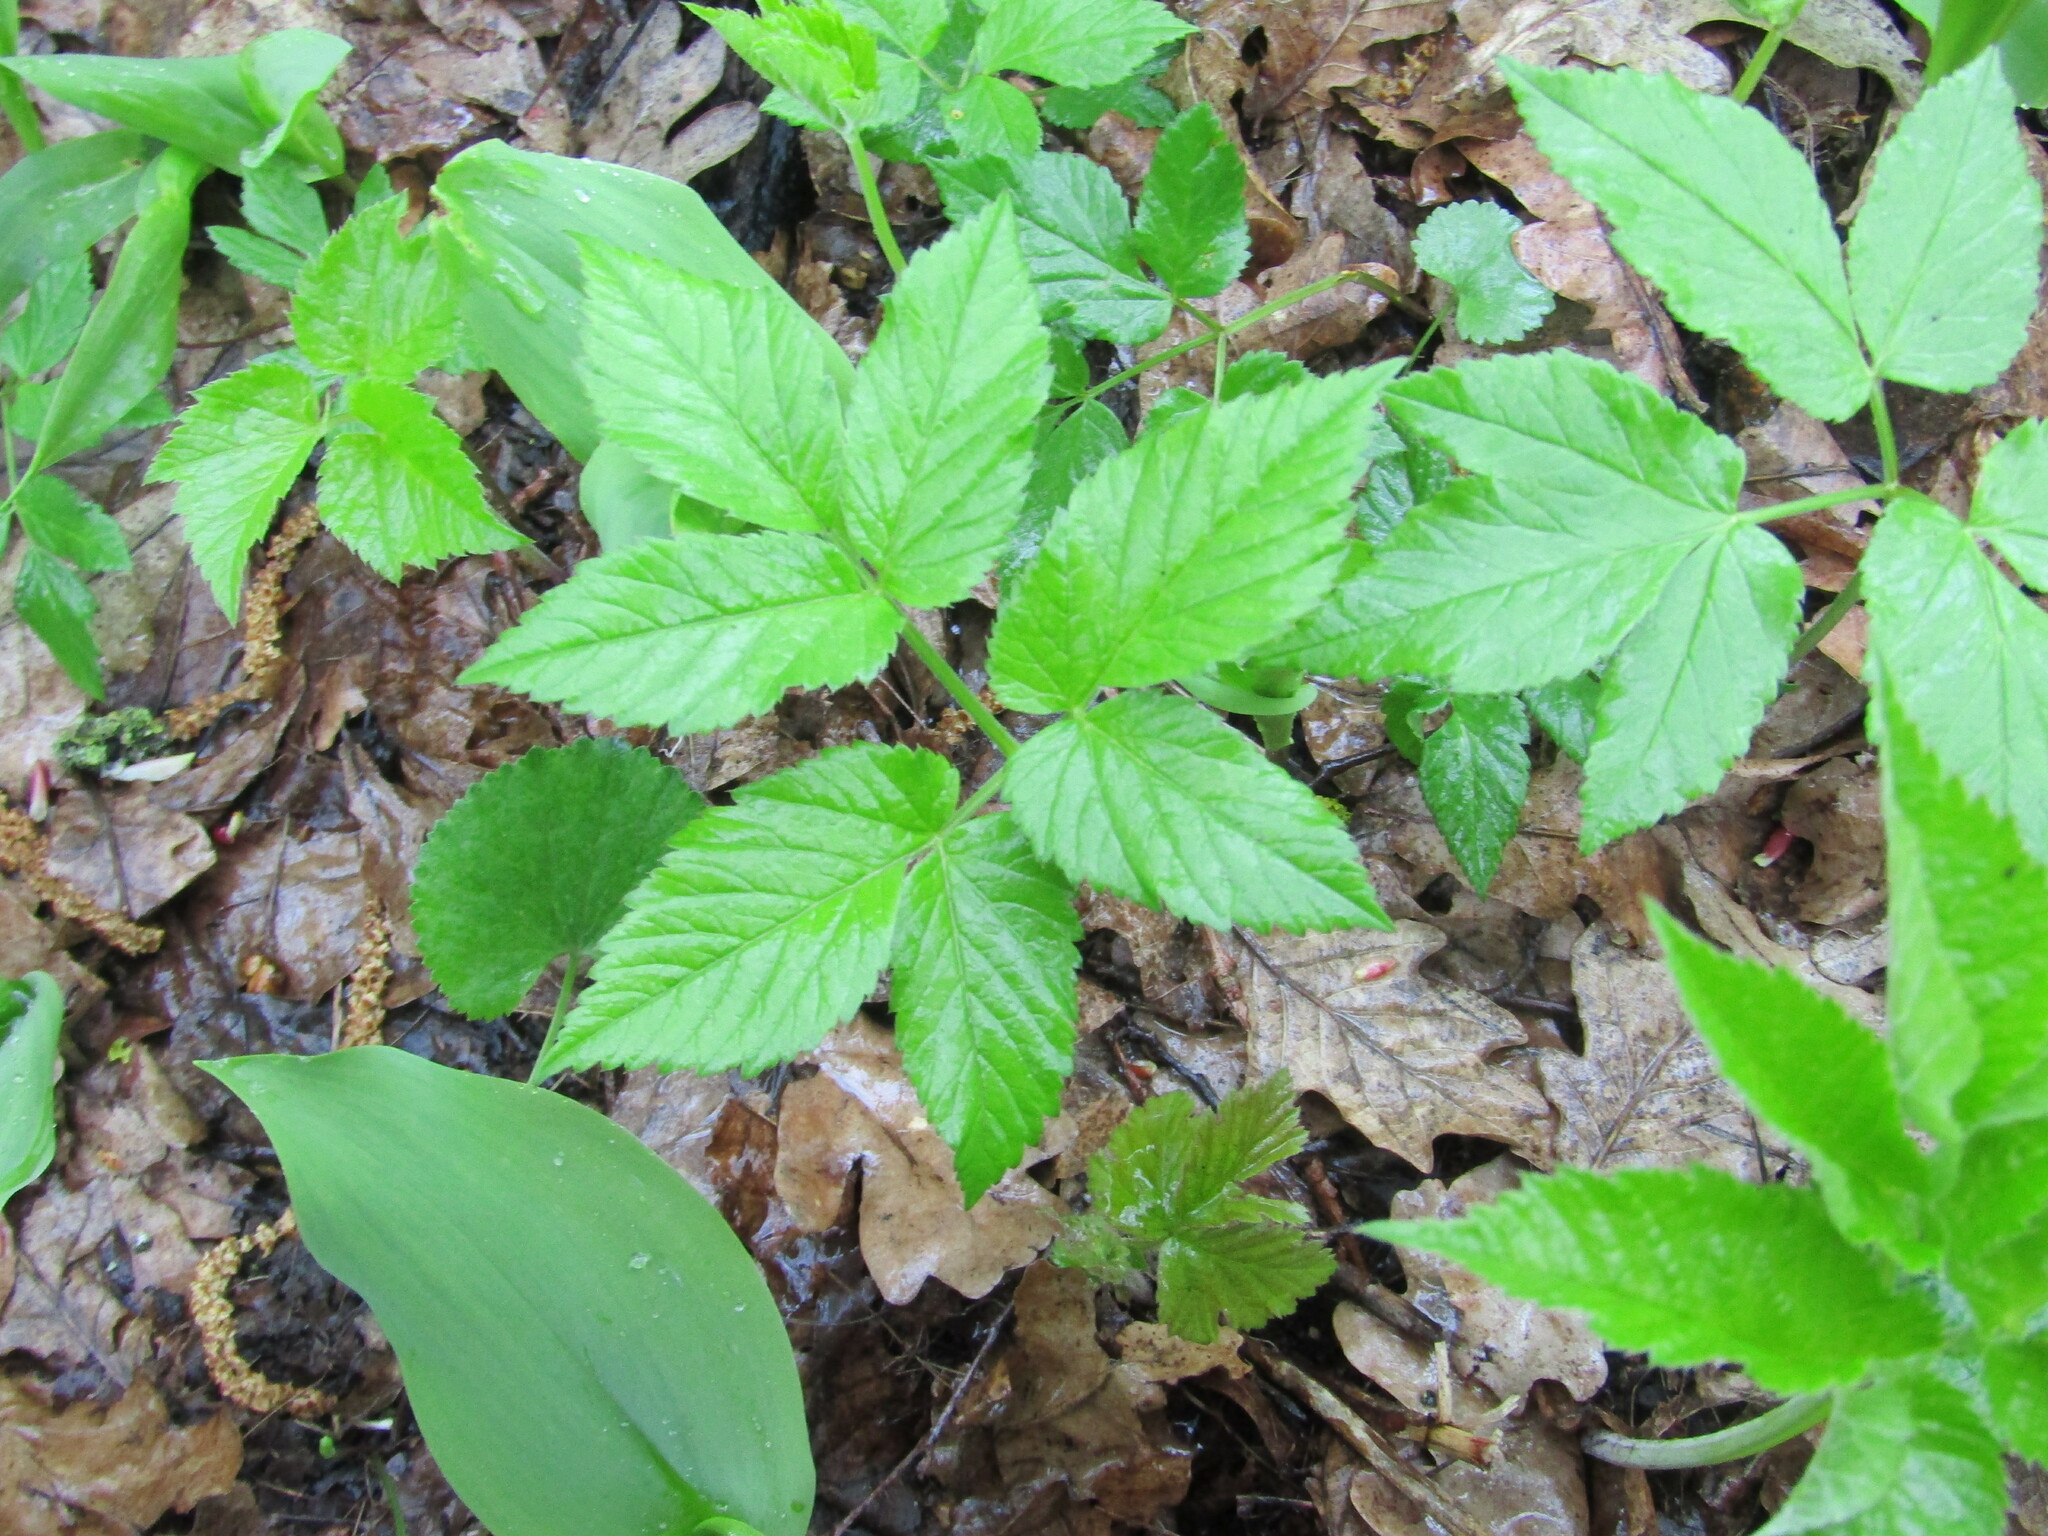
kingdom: Plantae
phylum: Tracheophyta
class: Magnoliopsida
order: Apiales
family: Apiaceae
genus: Aegopodium
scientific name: Aegopodium podagraria
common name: Ground-elder
